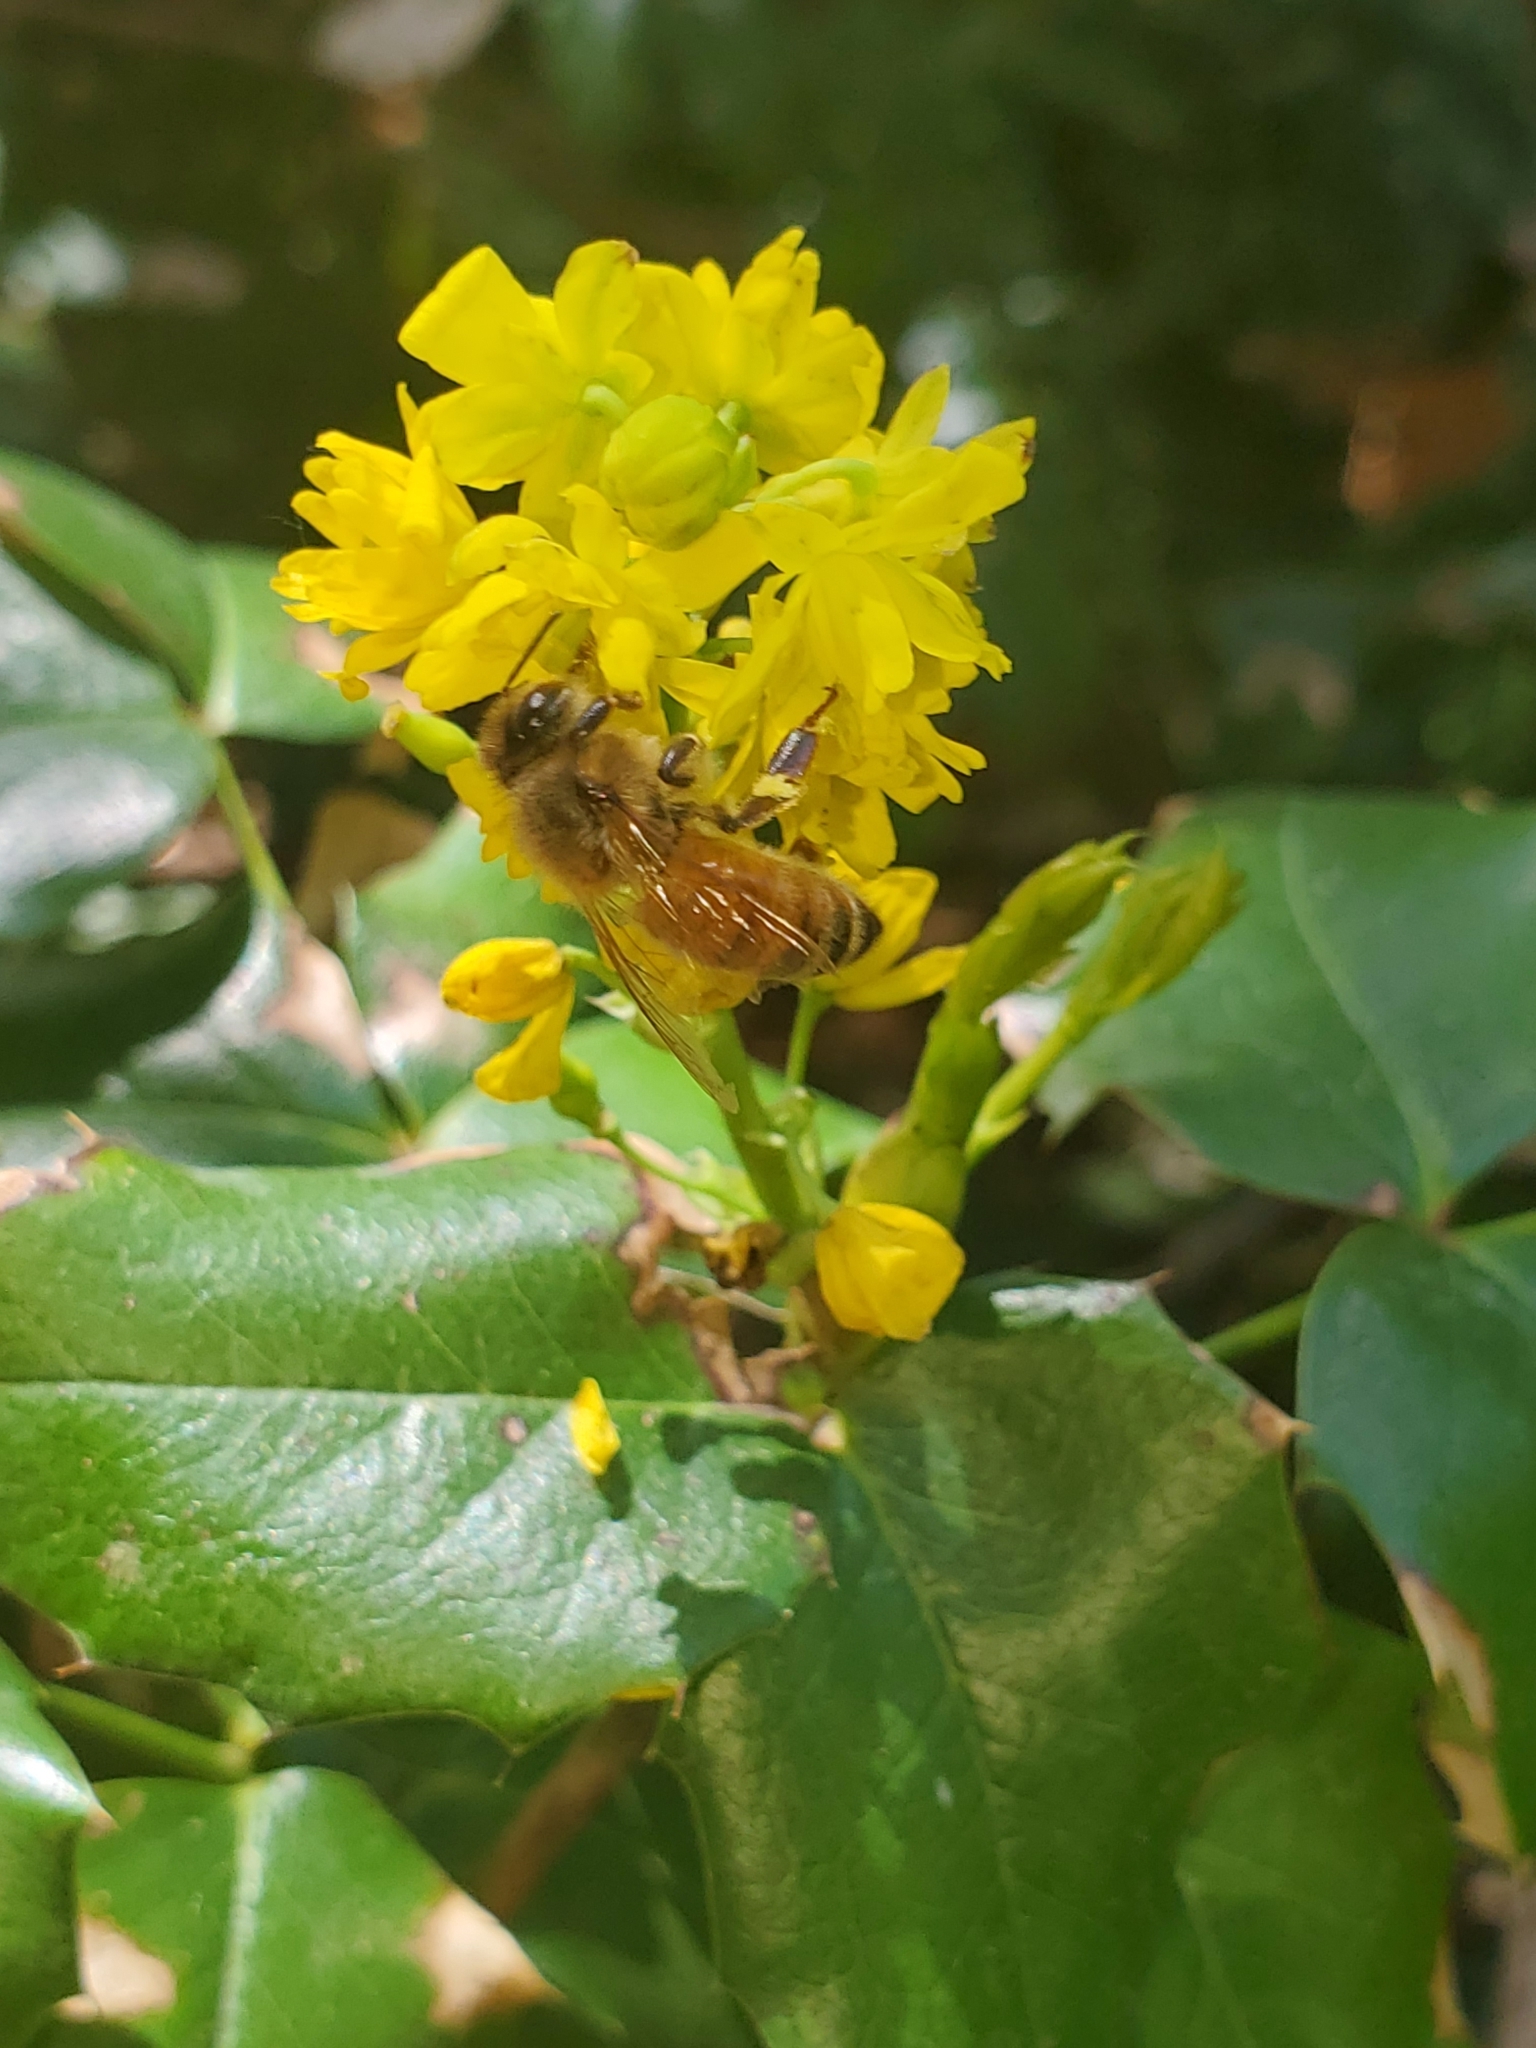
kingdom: Animalia
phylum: Arthropoda
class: Insecta
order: Hymenoptera
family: Apidae
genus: Apis
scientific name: Apis mellifera
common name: Honey bee
